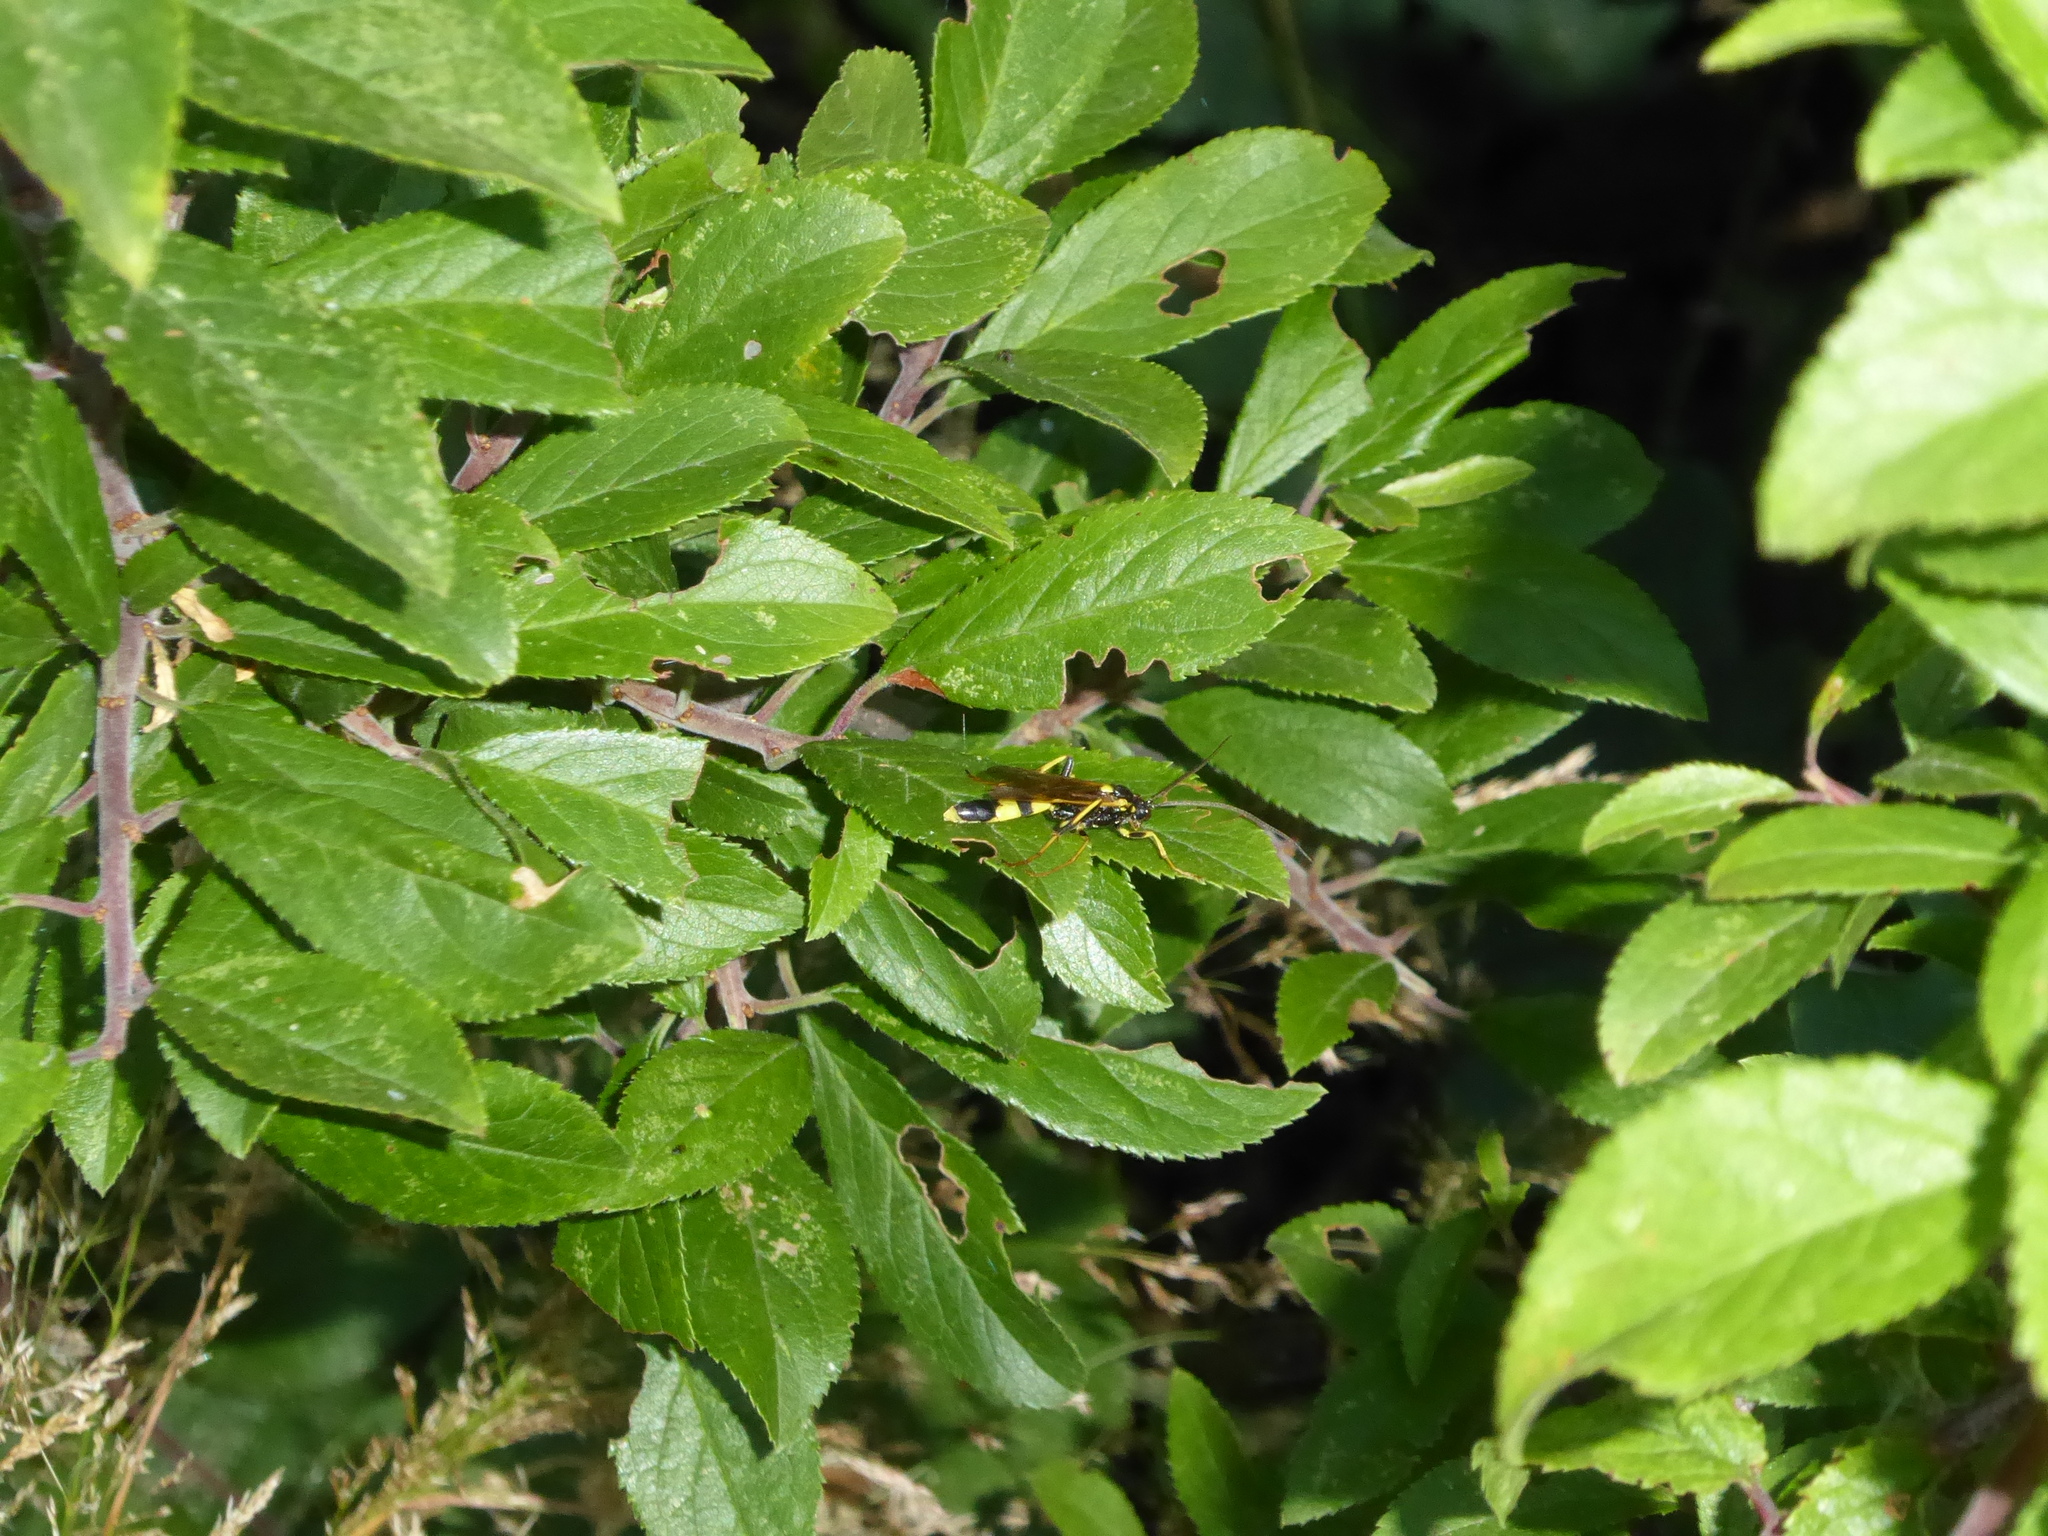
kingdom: Animalia
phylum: Arthropoda
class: Insecta
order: Hymenoptera
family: Ichneumonidae
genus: Amblyteles
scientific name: Amblyteles armatorius
